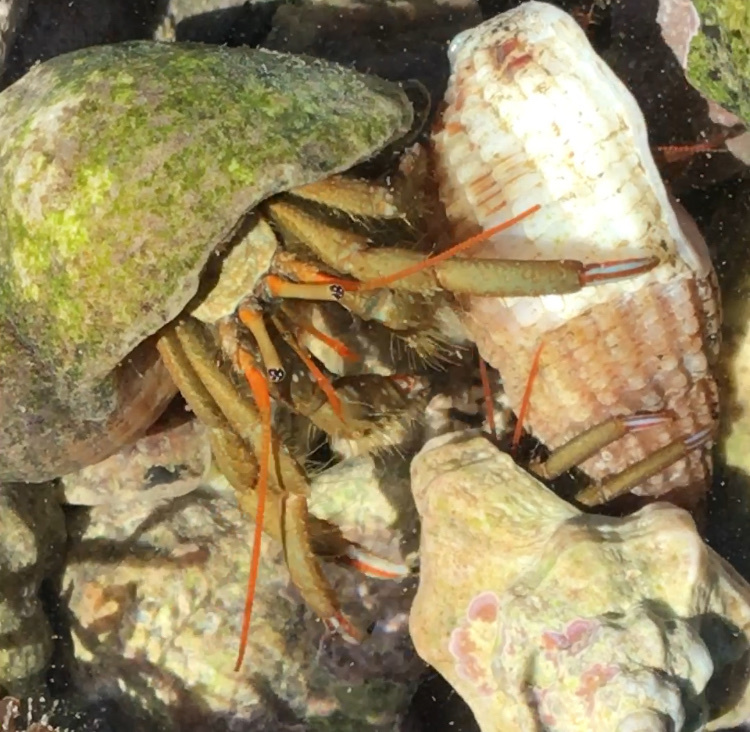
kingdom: Animalia
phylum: Arthropoda
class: Malacostraca
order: Decapoda
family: Diogenidae
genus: Clibanarius
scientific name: Clibanarius erythropus
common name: Hermit crab
